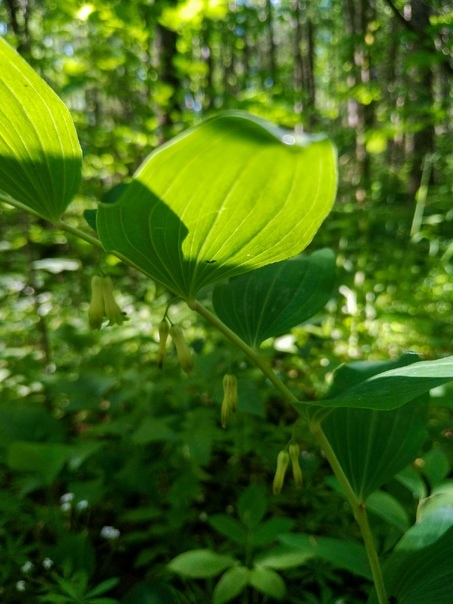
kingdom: Plantae
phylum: Tracheophyta
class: Liliopsida
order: Asparagales
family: Asparagaceae
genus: Polygonatum
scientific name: Polygonatum multiflorum
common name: Solomon's-seal
